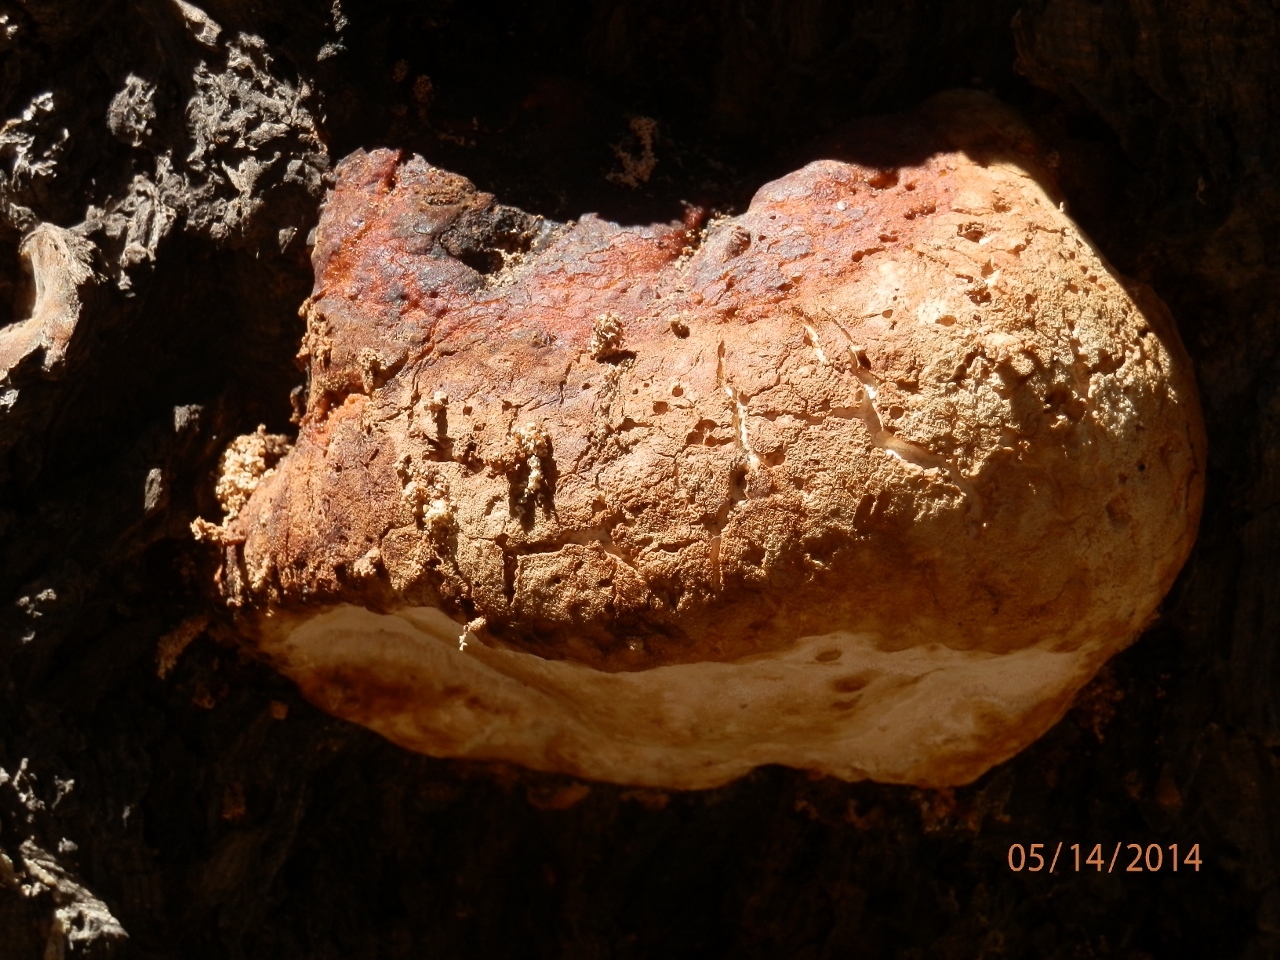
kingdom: Fungi
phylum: Basidiomycota
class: Agaricomycetes
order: Polyporales
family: Fomitopsidaceae
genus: Fomitopsis
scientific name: Fomitopsis schrenkii
